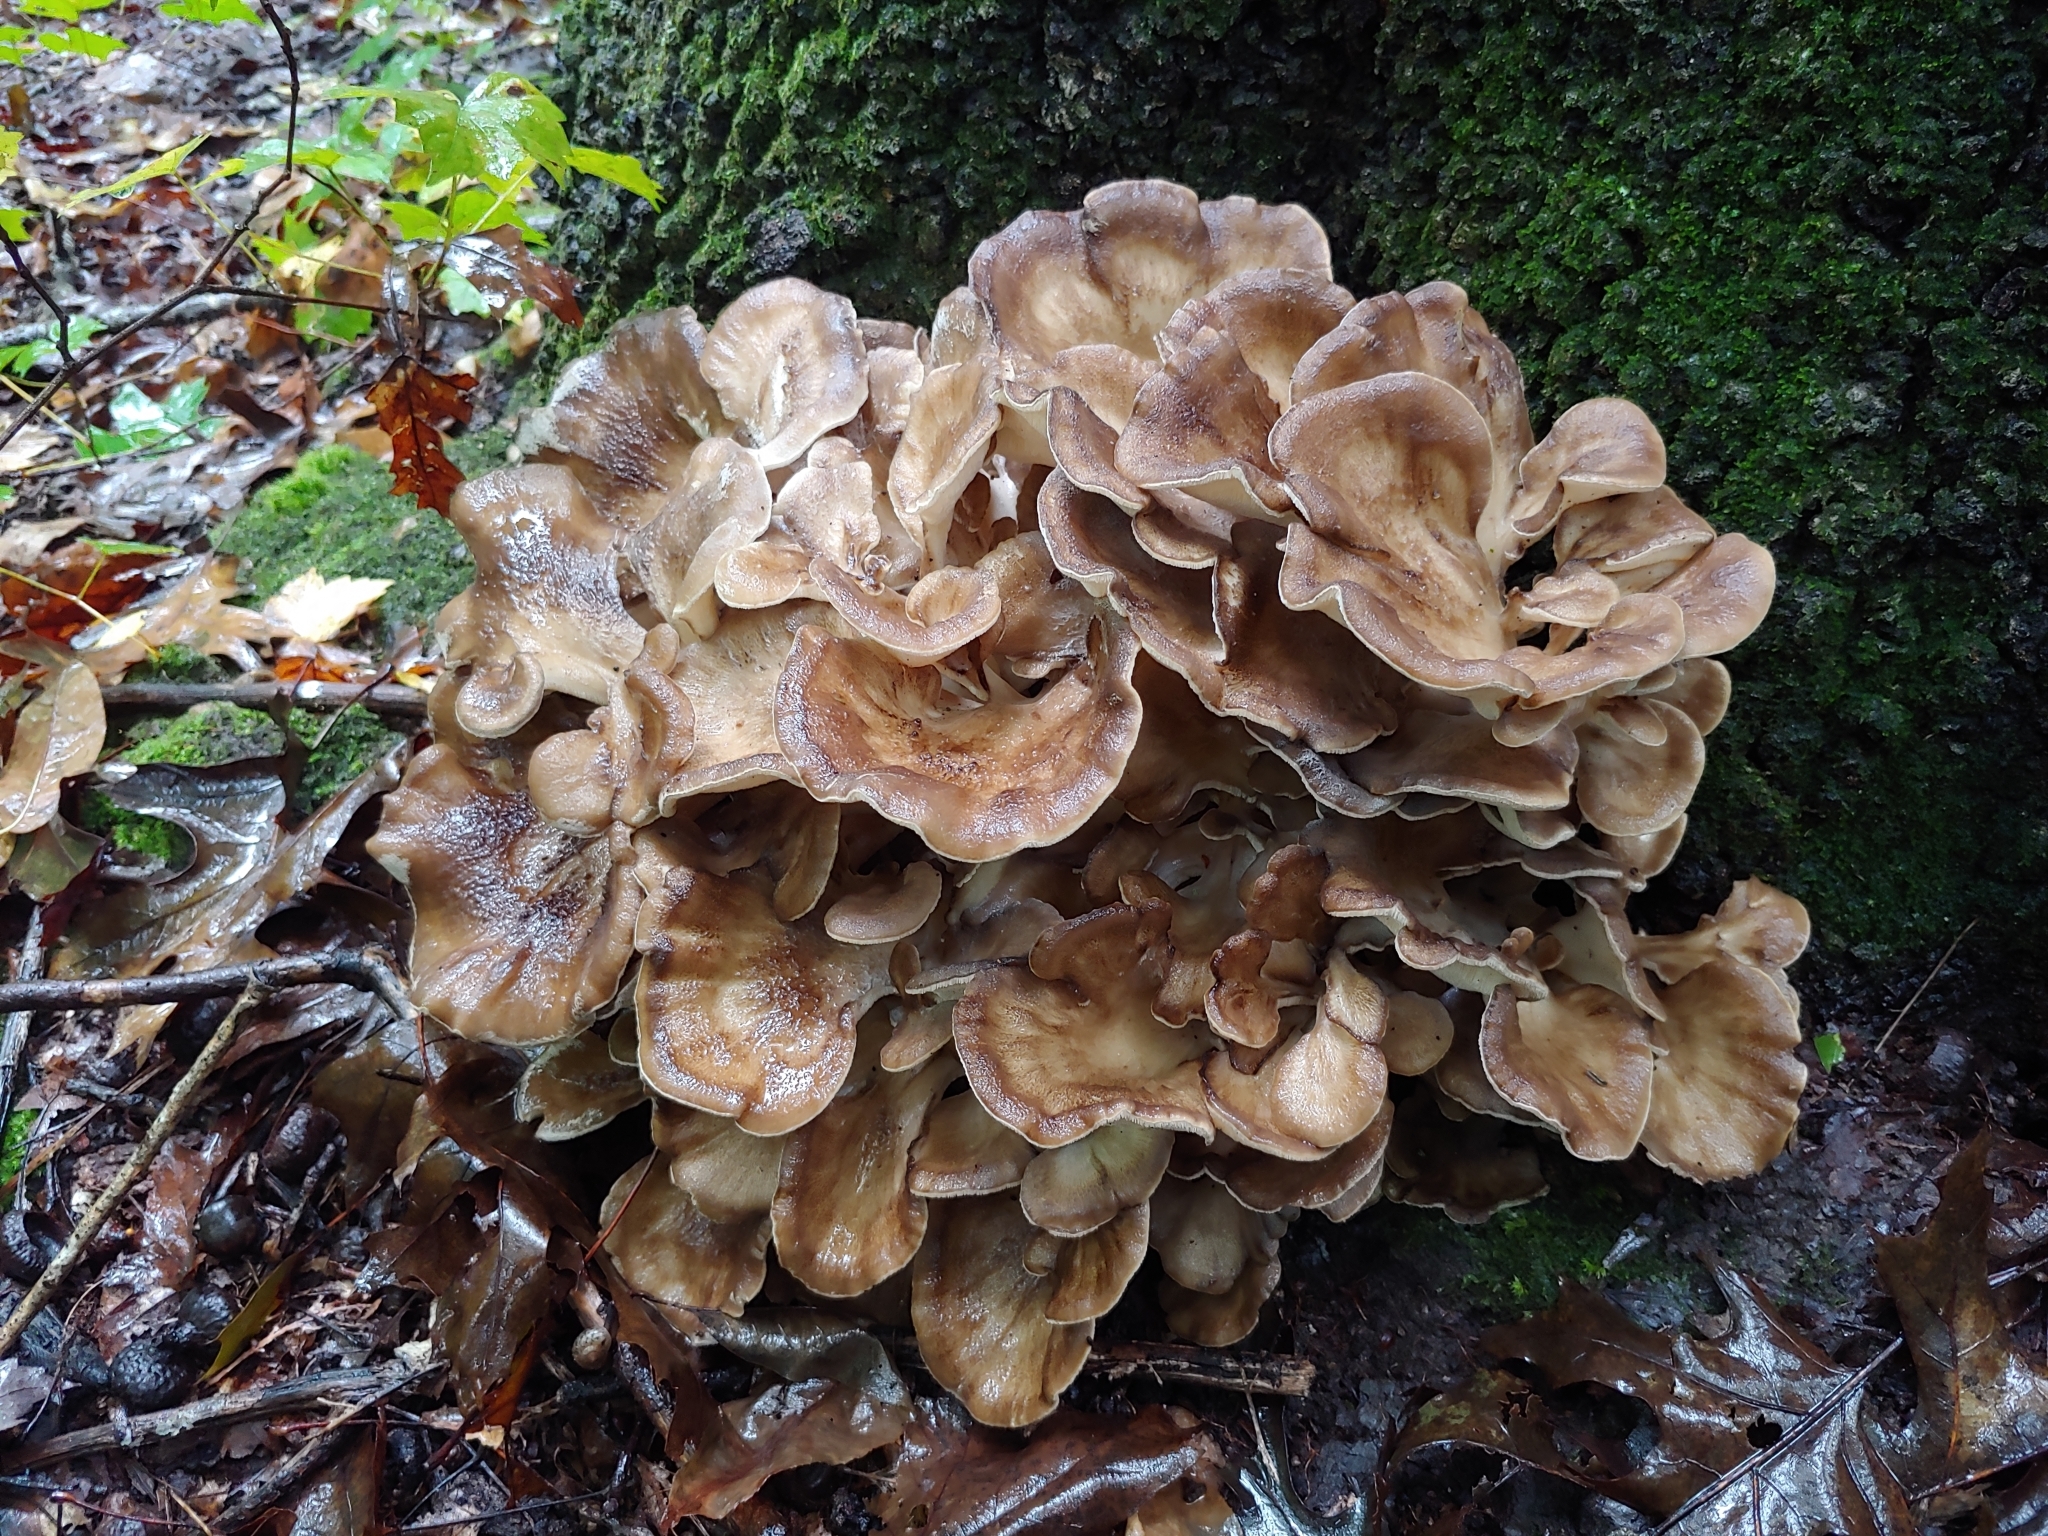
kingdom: Fungi
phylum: Basidiomycota
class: Agaricomycetes
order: Polyporales
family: Grifolaceae
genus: Grifola
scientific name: Grifola frondosa
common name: Hen of the woods
